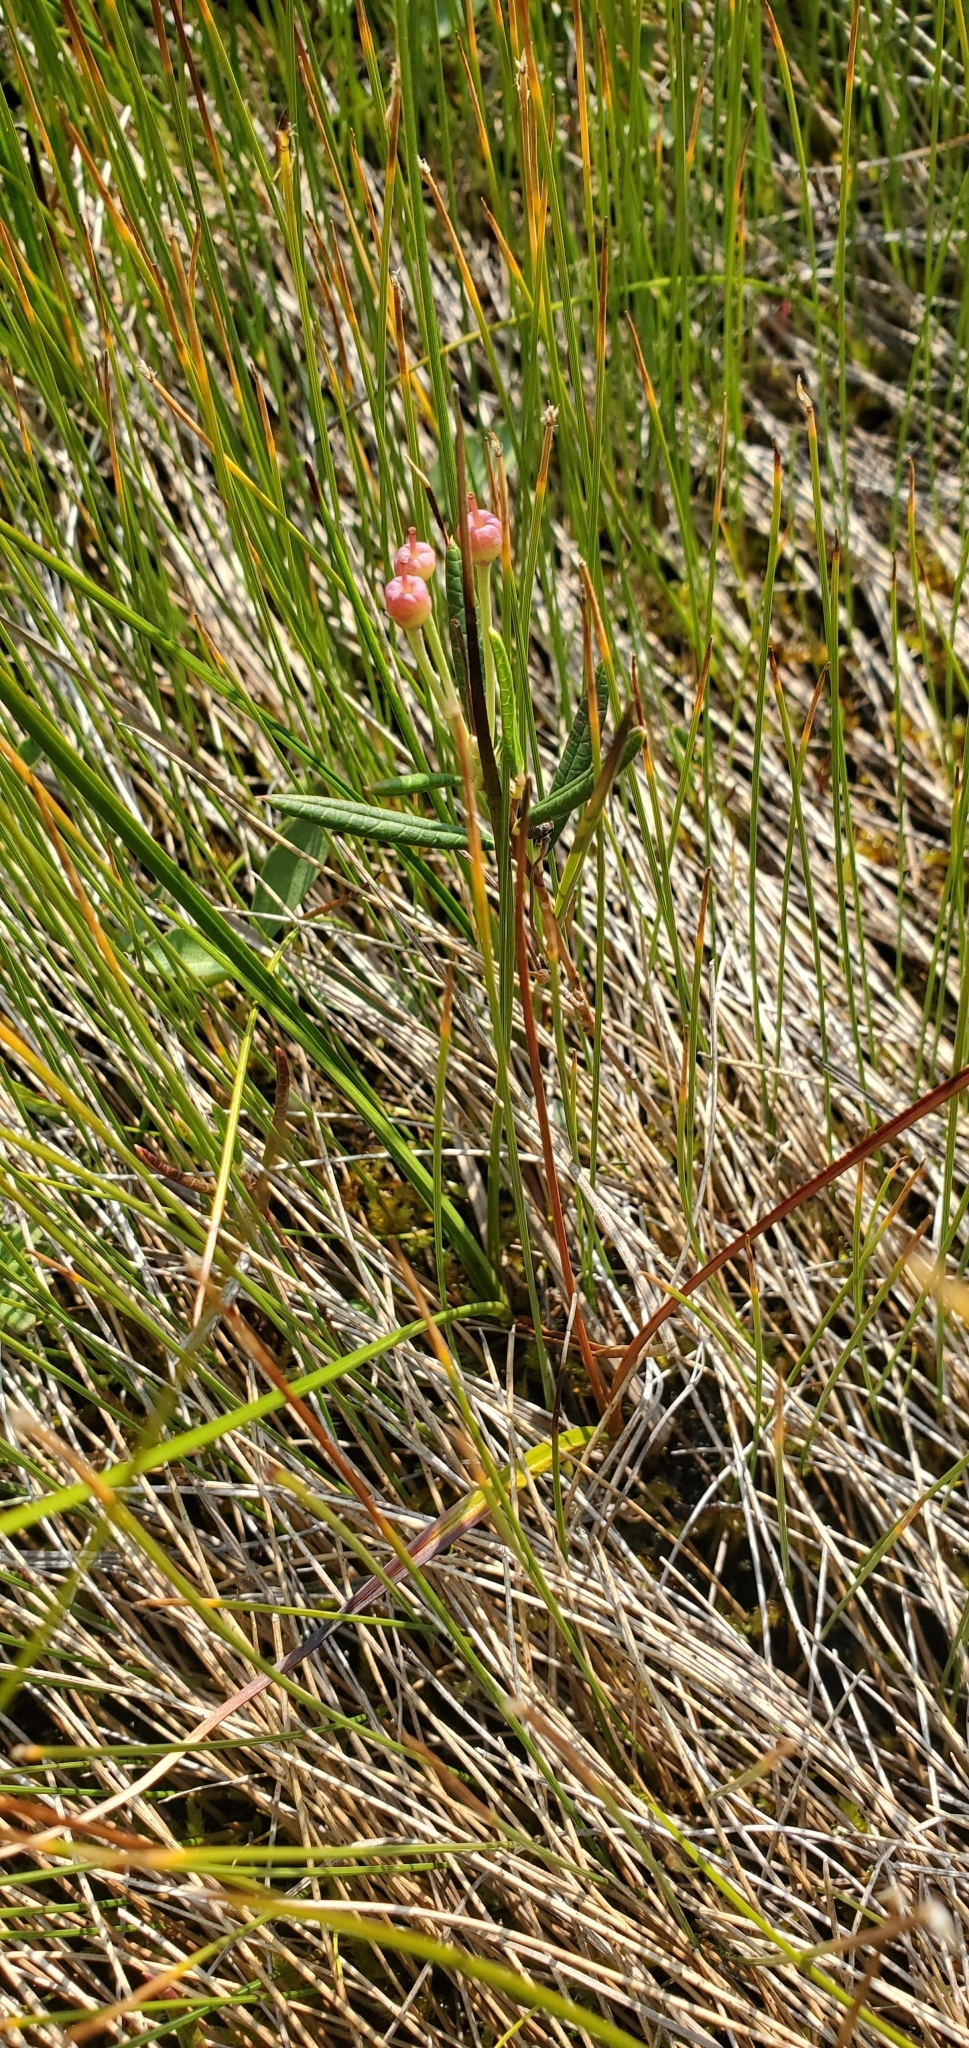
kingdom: Plantae
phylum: Tracheophyta
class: Magnoliopsida
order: Ericales
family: Ericaceae
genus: Andromeda
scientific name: Andromeda polifolia
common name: Bog-rosemary
